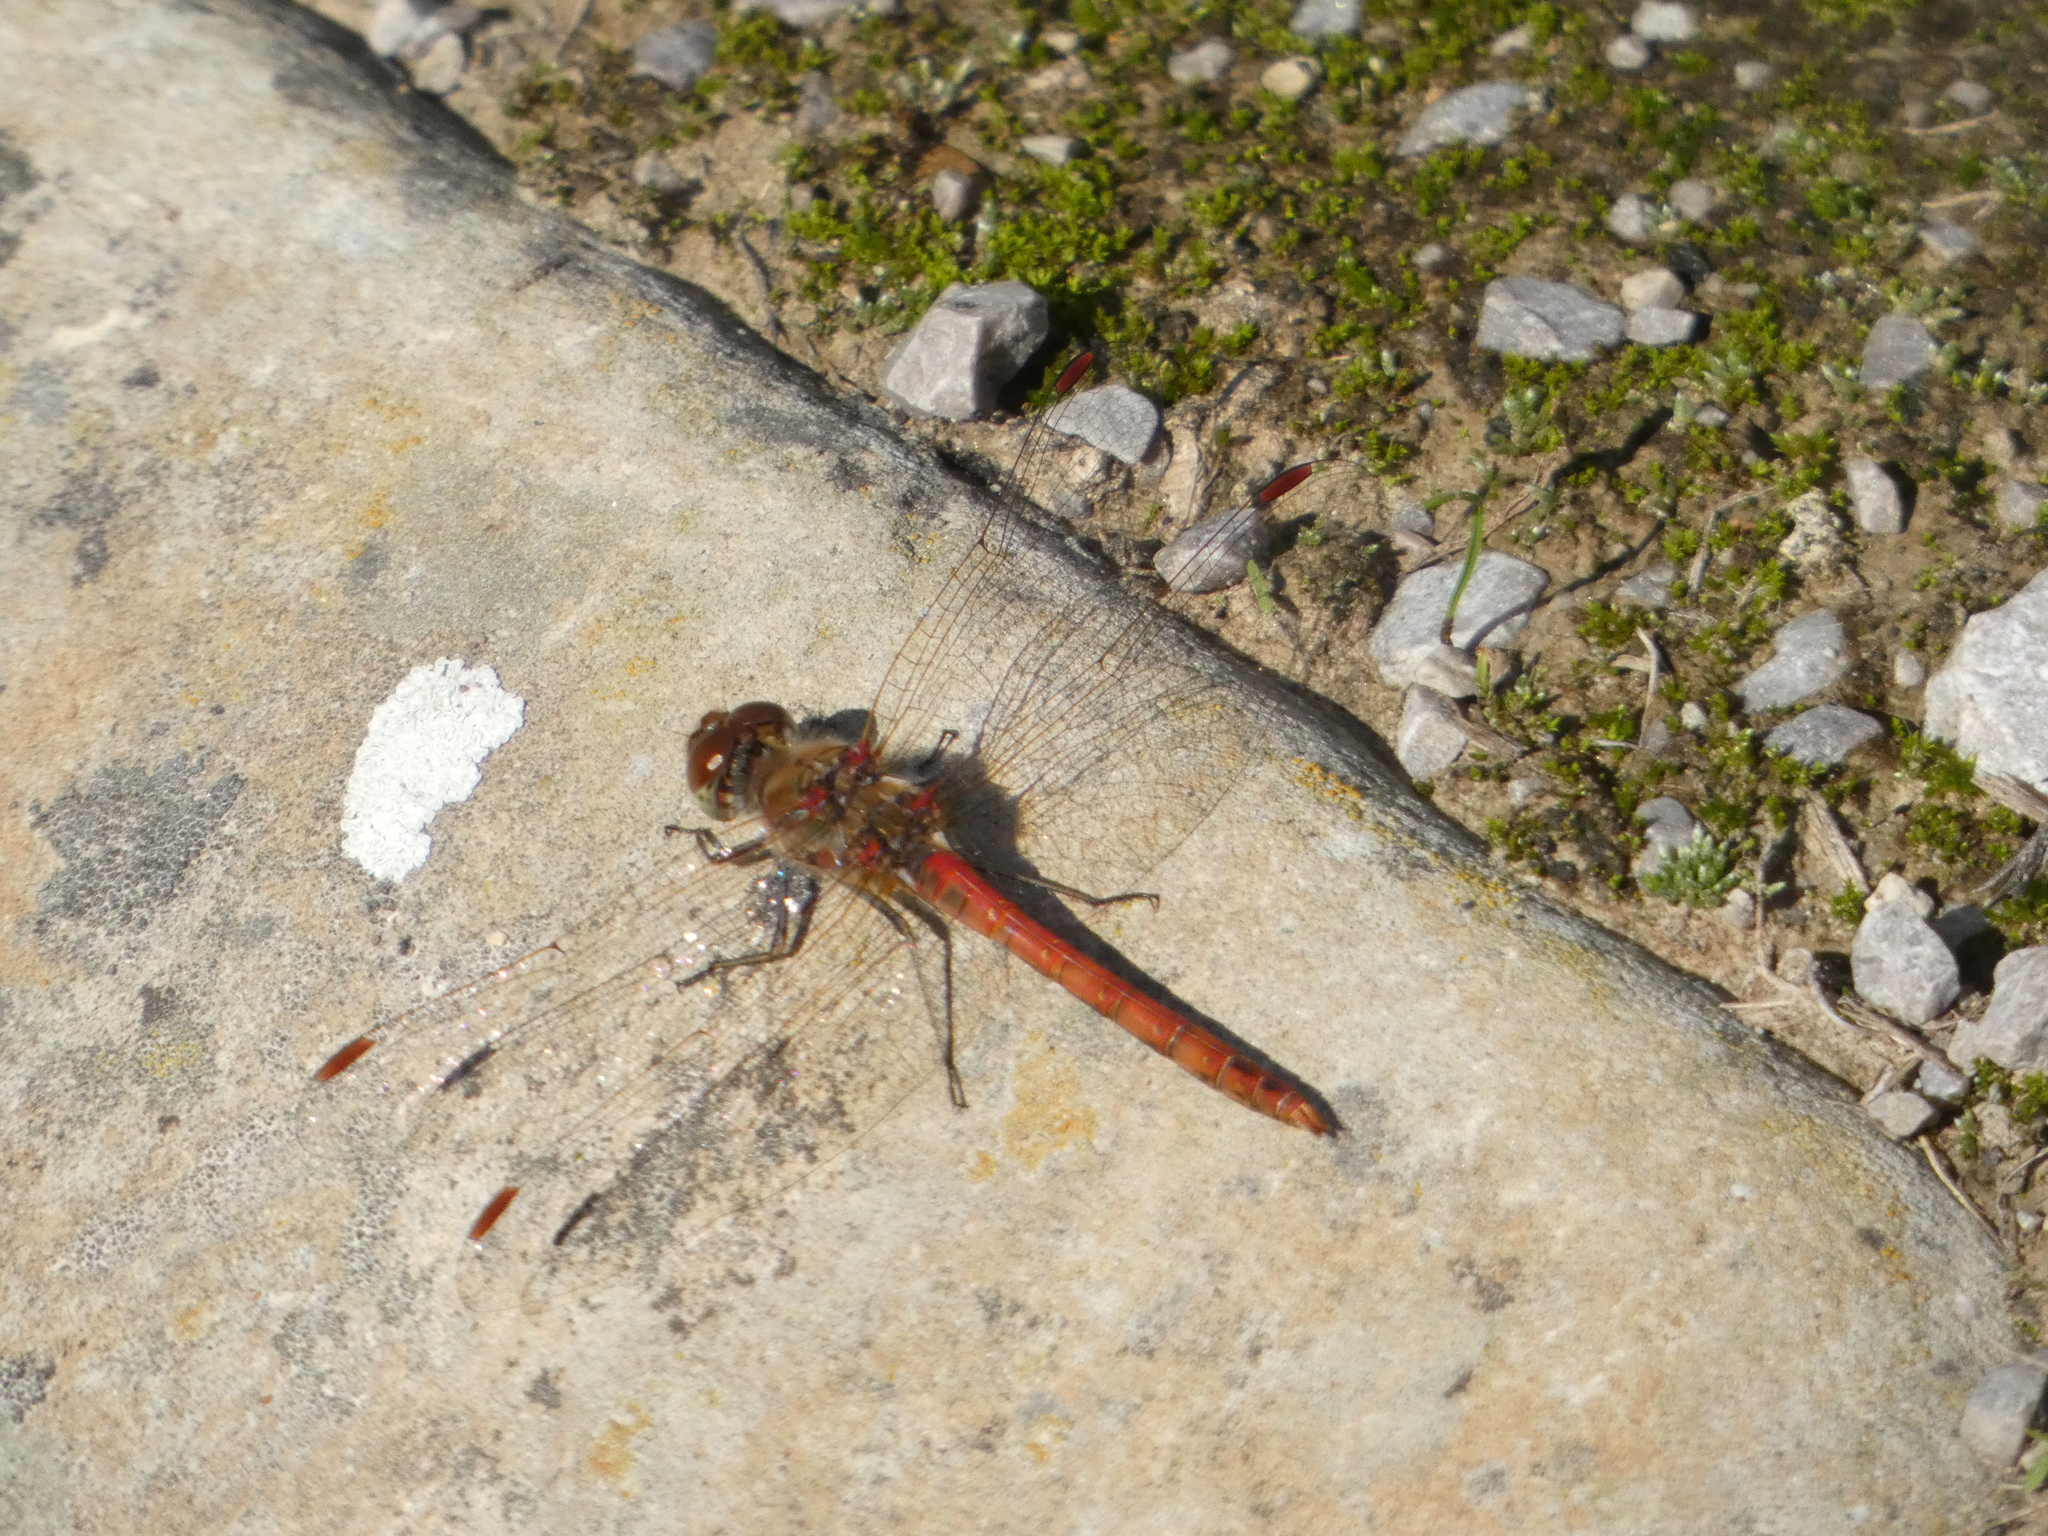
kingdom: Animalia
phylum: Arthropoda
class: Insecta
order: Odonata
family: Libellulidae
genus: Sympetrum
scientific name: Sympetrum striolatum
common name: Common darter
